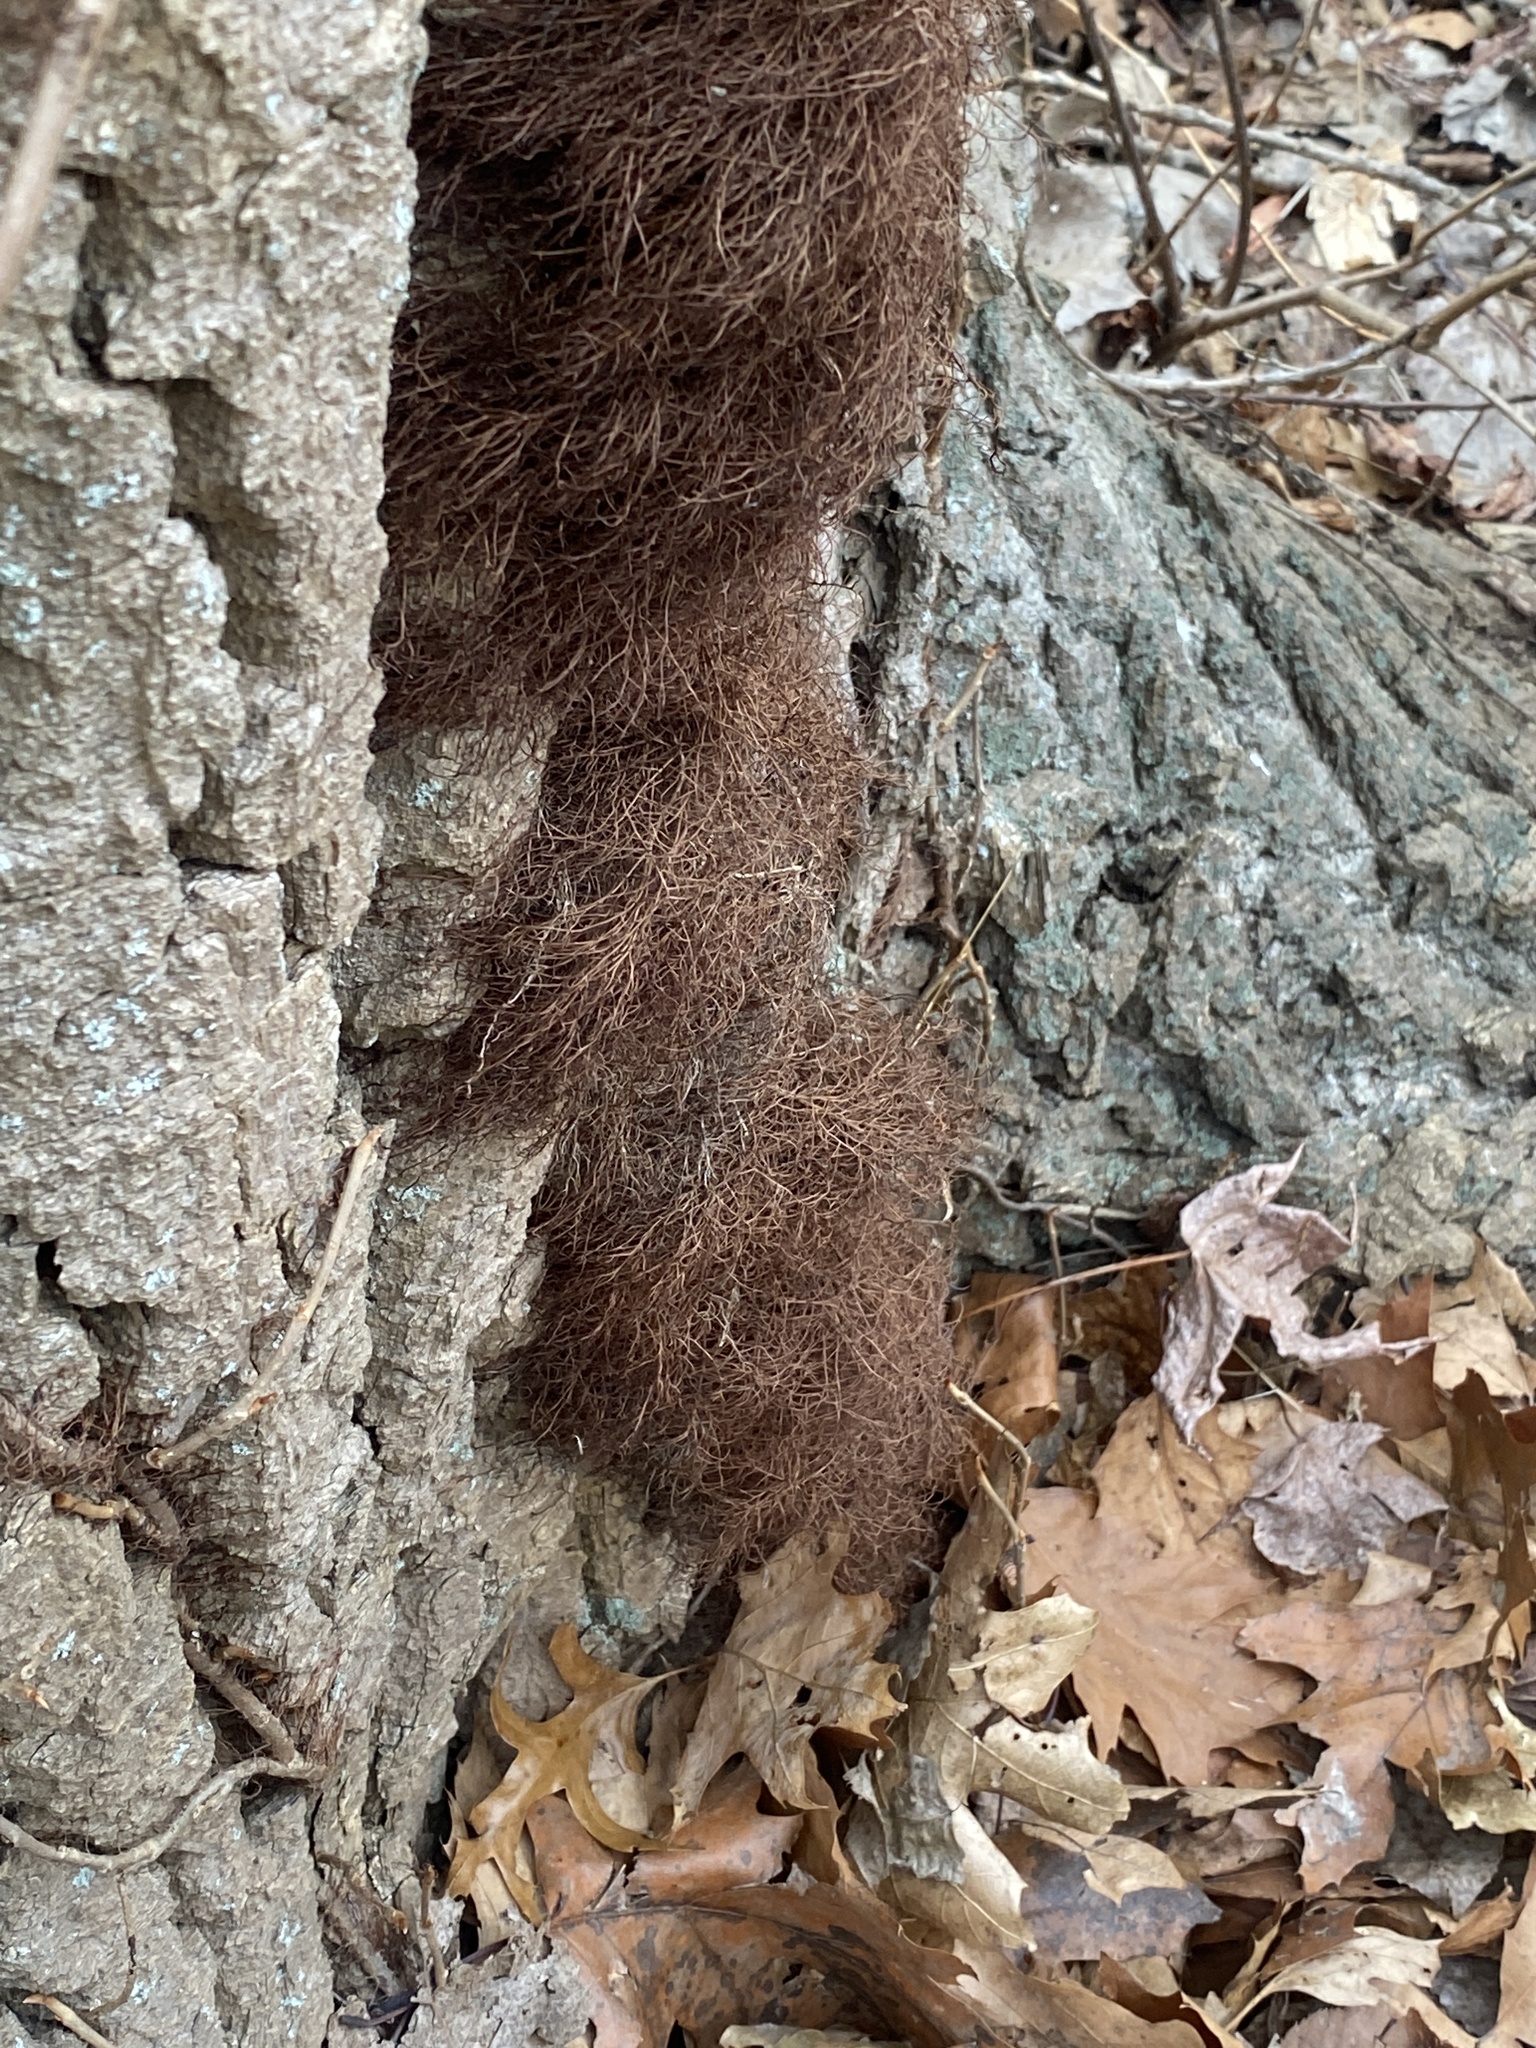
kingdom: Plantae
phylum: Tracheophyta
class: Magnoliopsida
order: Sapindales
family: Anacardiaceae
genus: Toxicodendron
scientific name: Toxicodendron radicans
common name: Poison ivy
